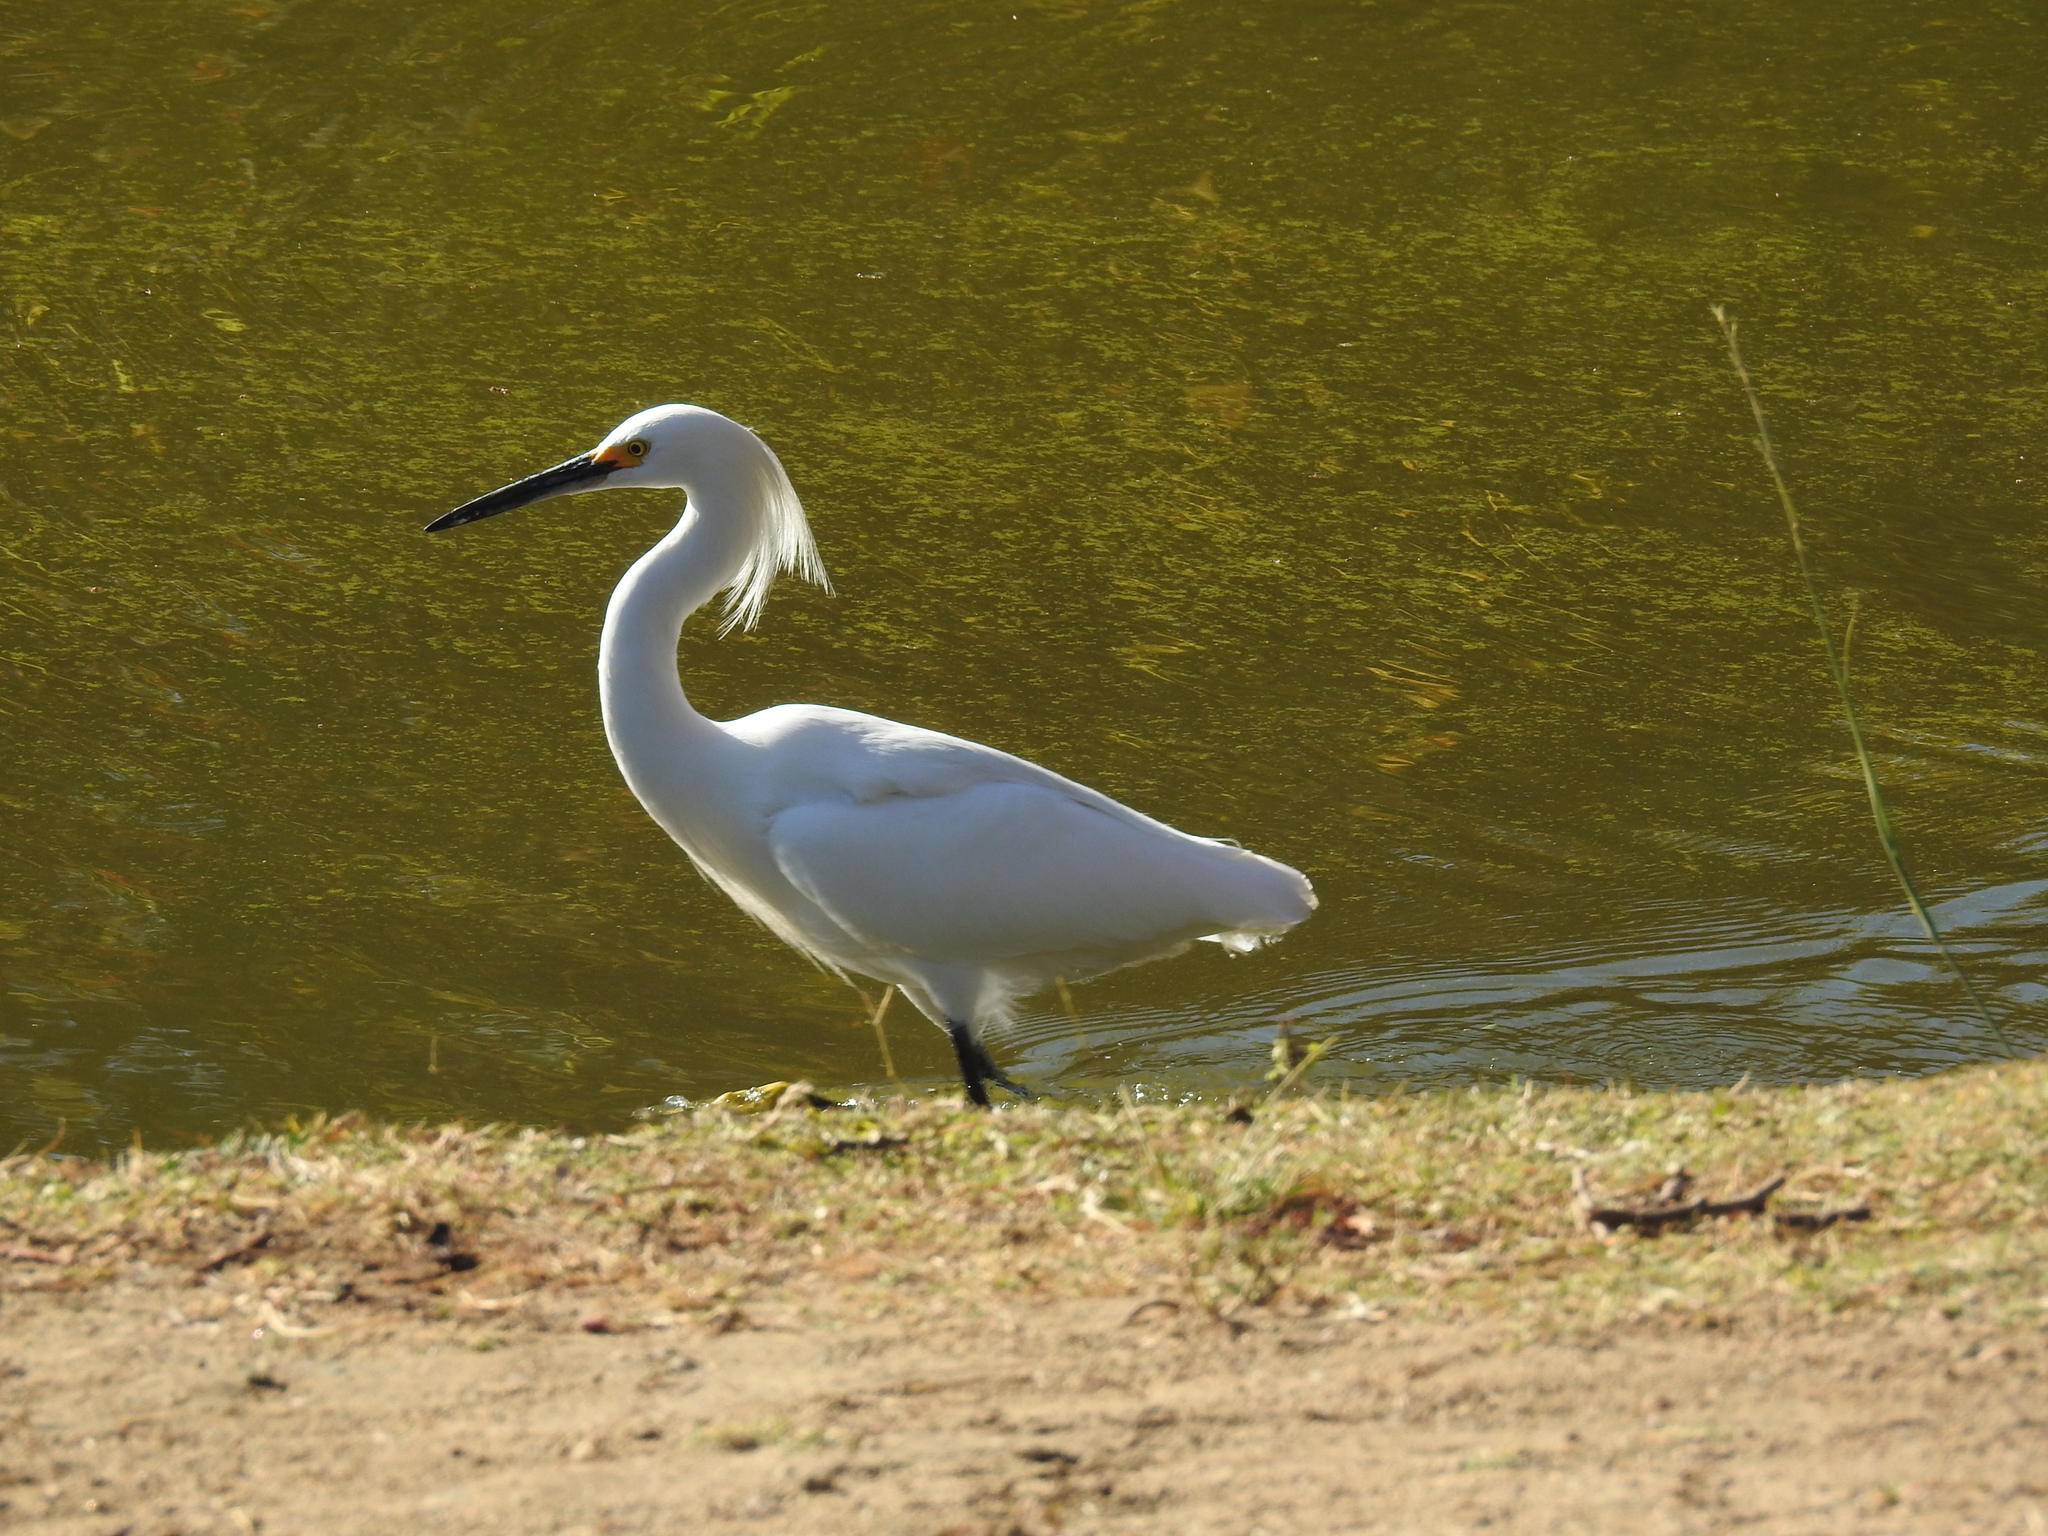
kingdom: Animalia
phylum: Chordata
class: Aves
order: Pelecaniformes
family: Ardeidae
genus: Egretta
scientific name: Egretta thula
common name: Snowy egret
